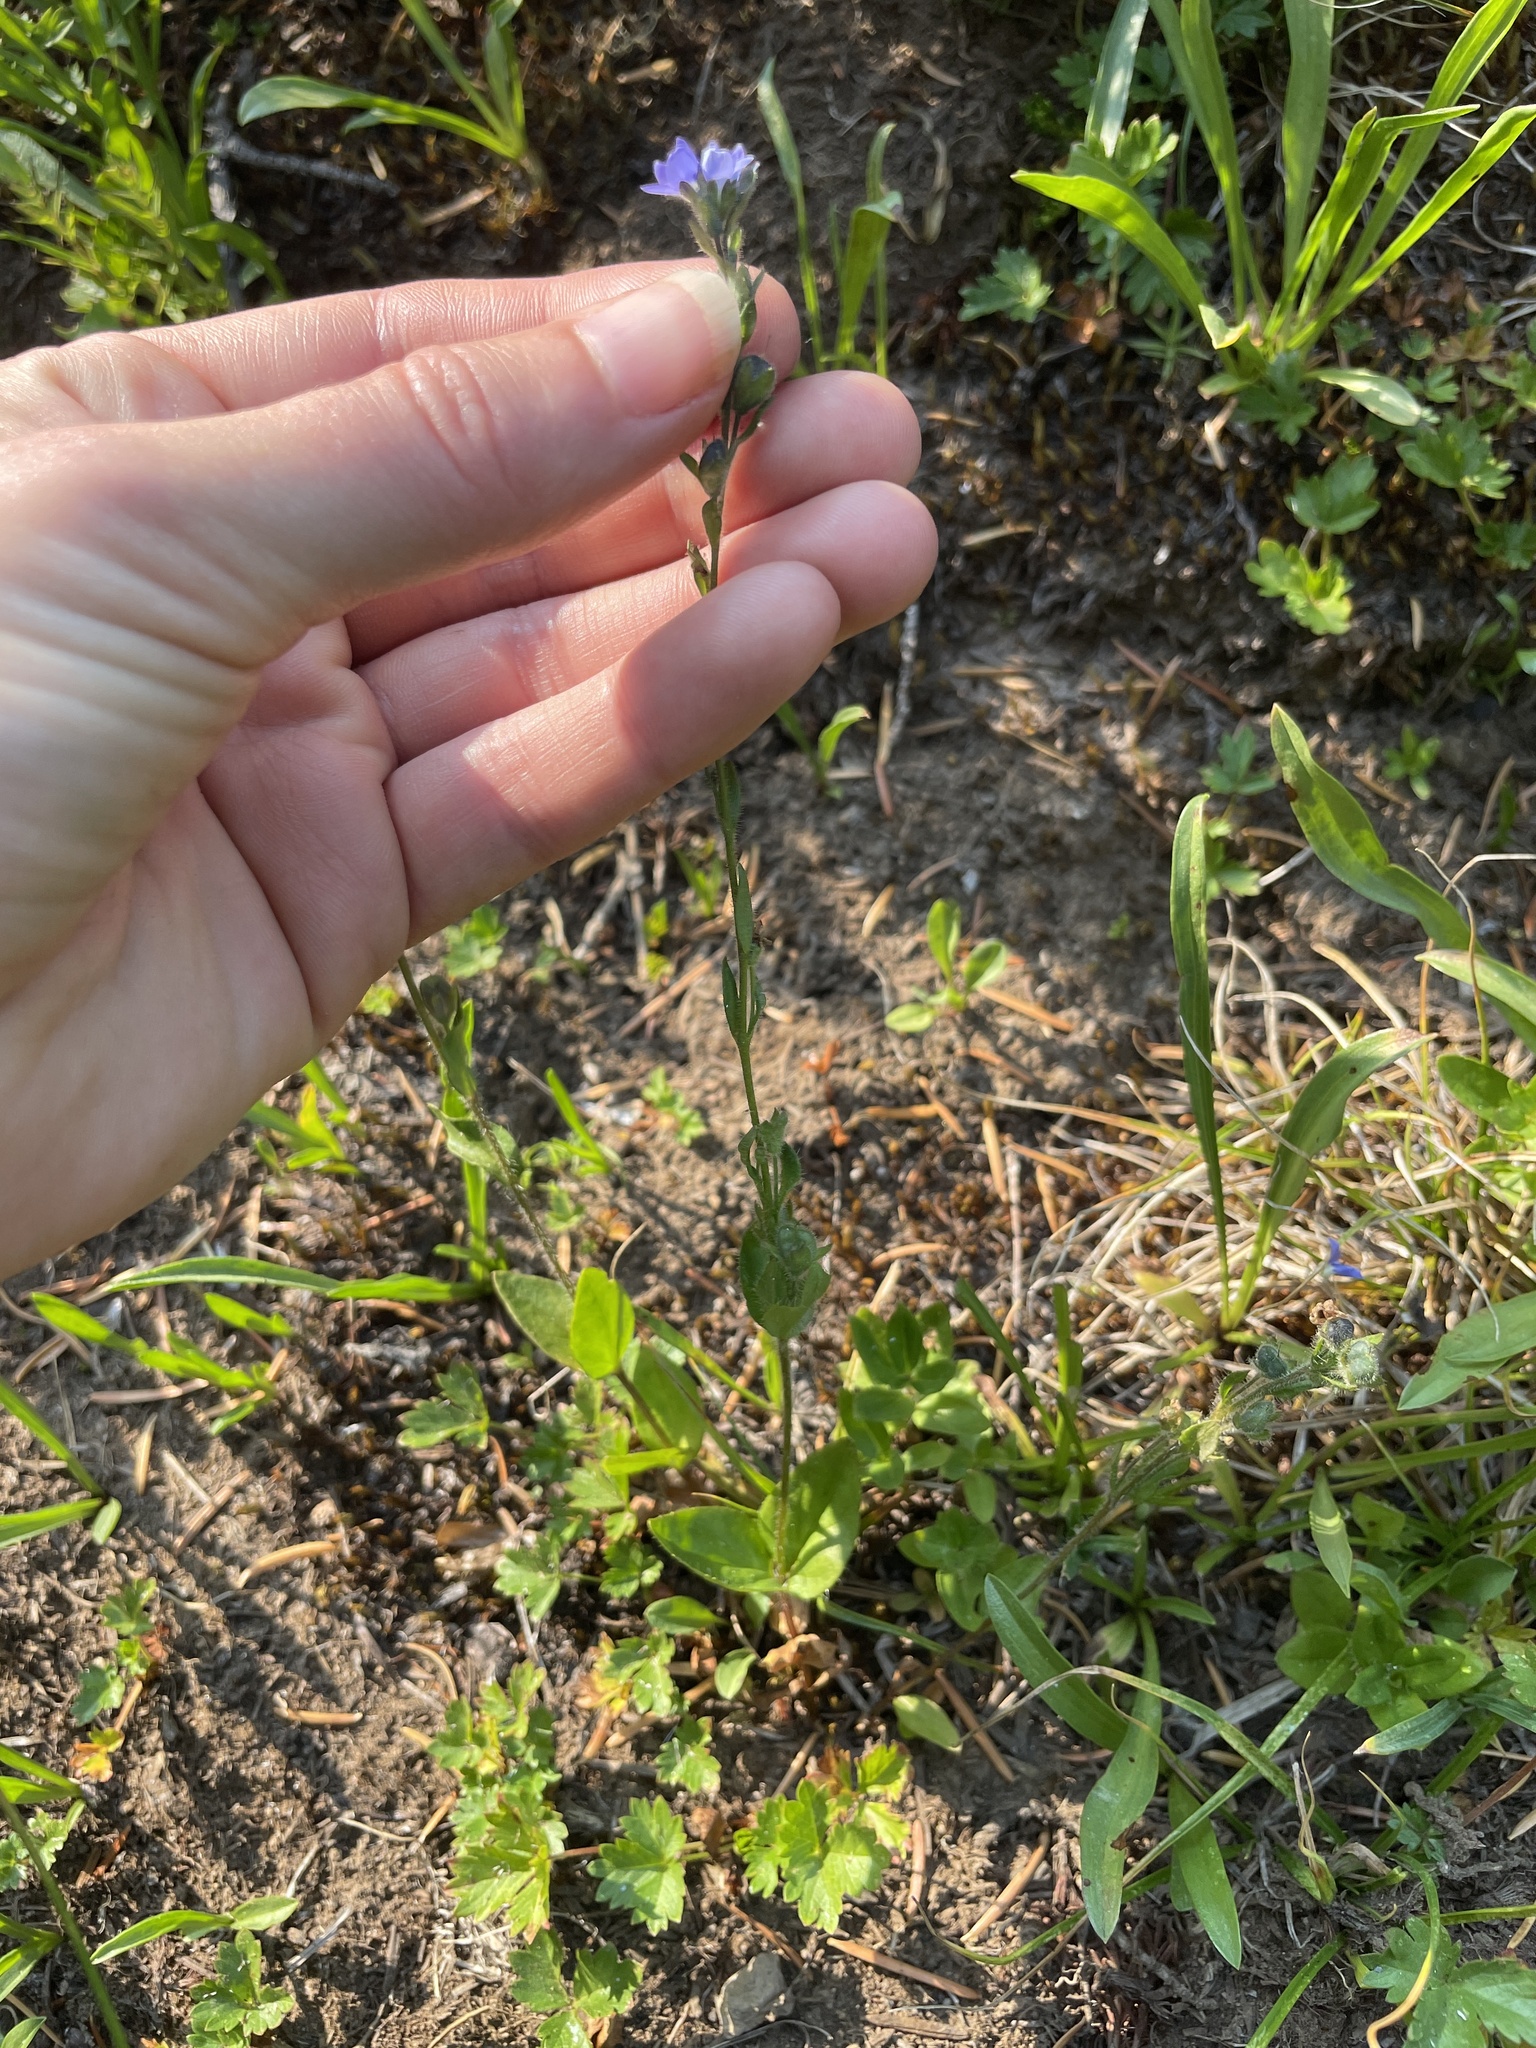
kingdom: Plantae
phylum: Tracheophyta
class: Magnoliopsida
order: Lamiales
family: Plantaginaceae
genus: Veronica
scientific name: Veronica wormskjoldii
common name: American alpine speedwell
